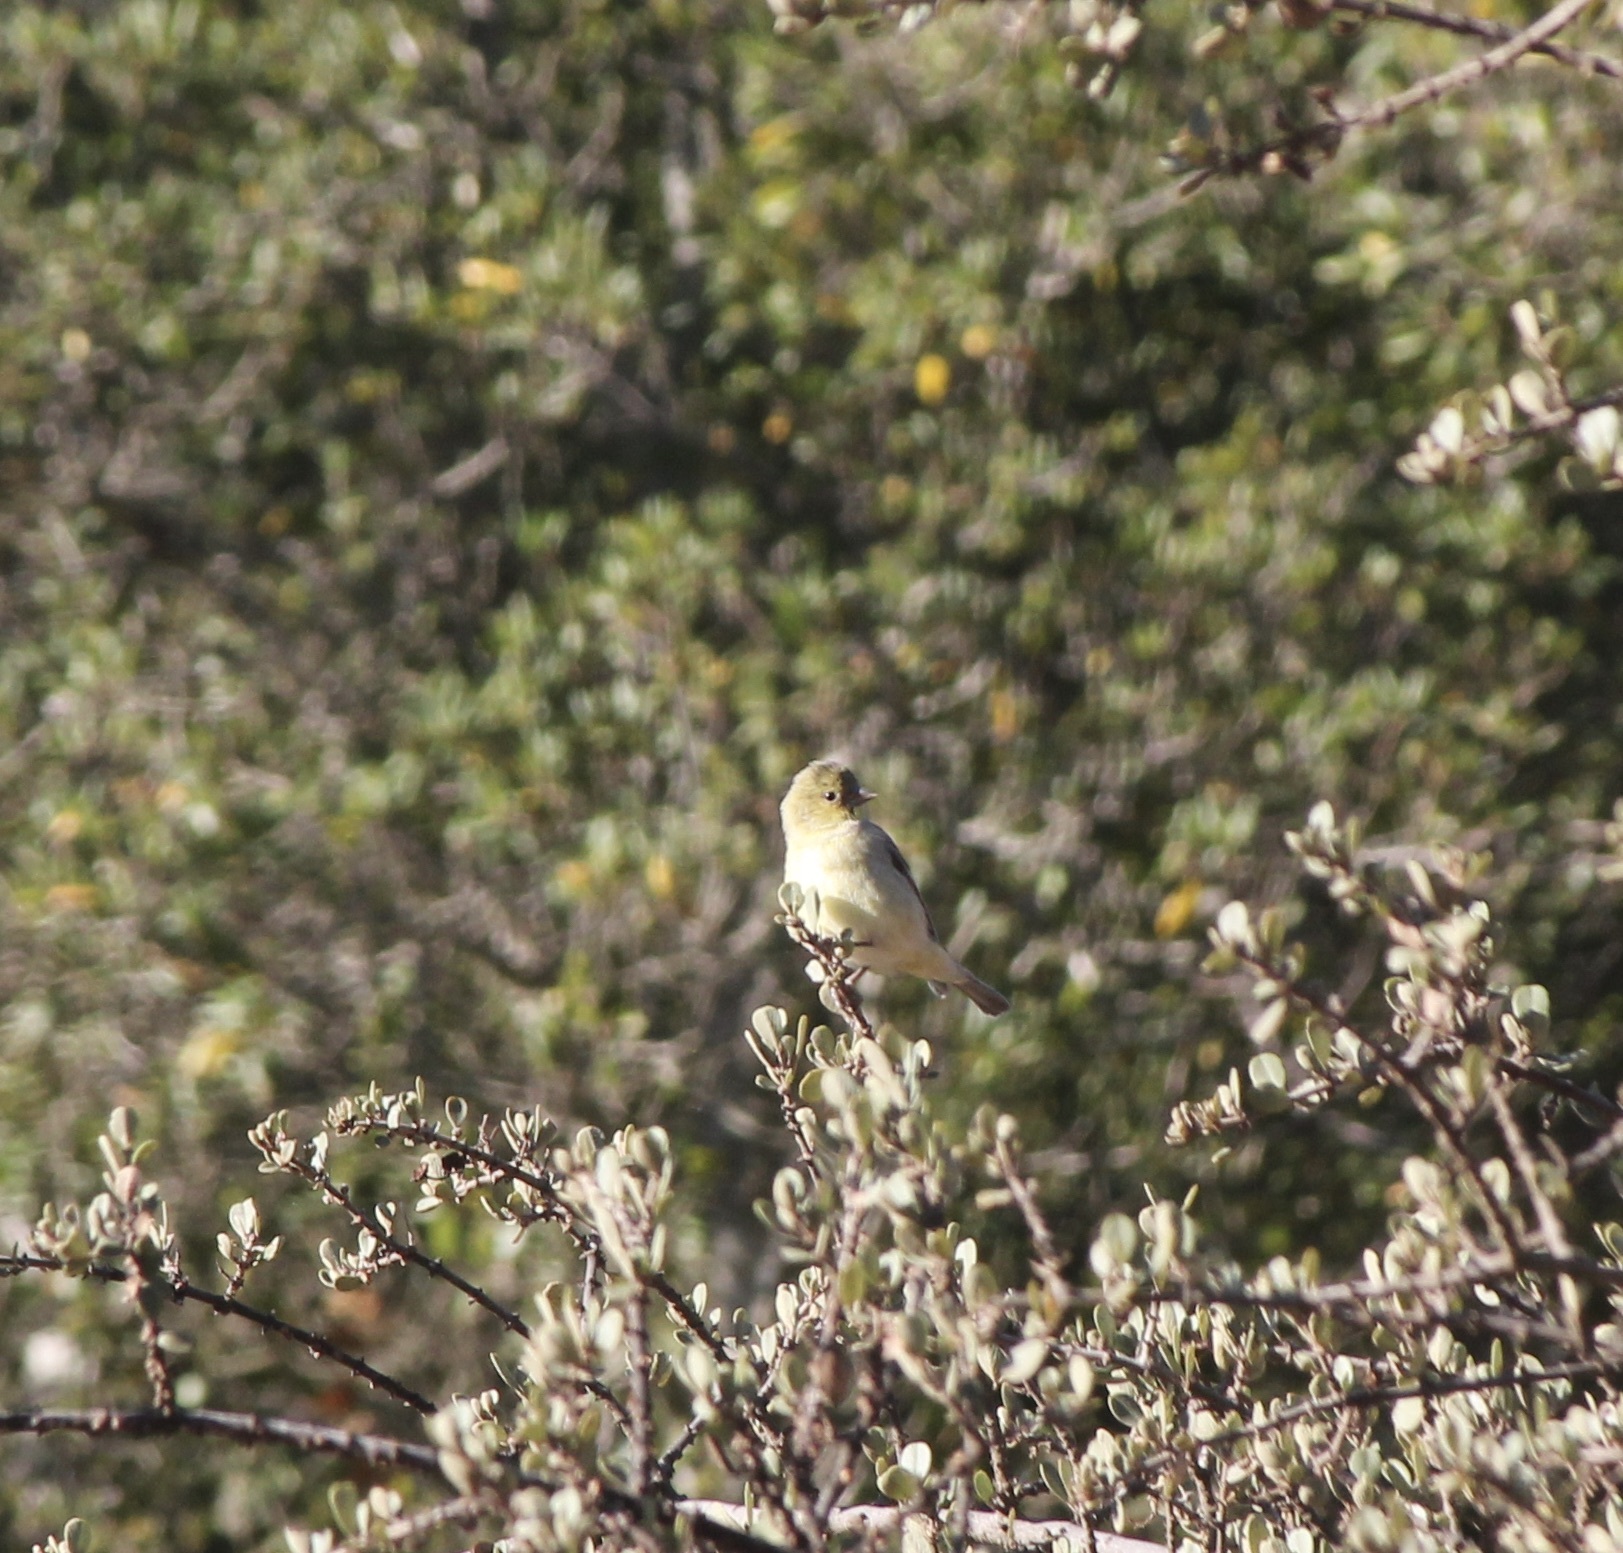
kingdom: Animalia
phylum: Chordata
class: Aves
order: Passeriformes
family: Fringillidae
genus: Spinus
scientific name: Spinus psaltria
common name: Lesser goldfinch
